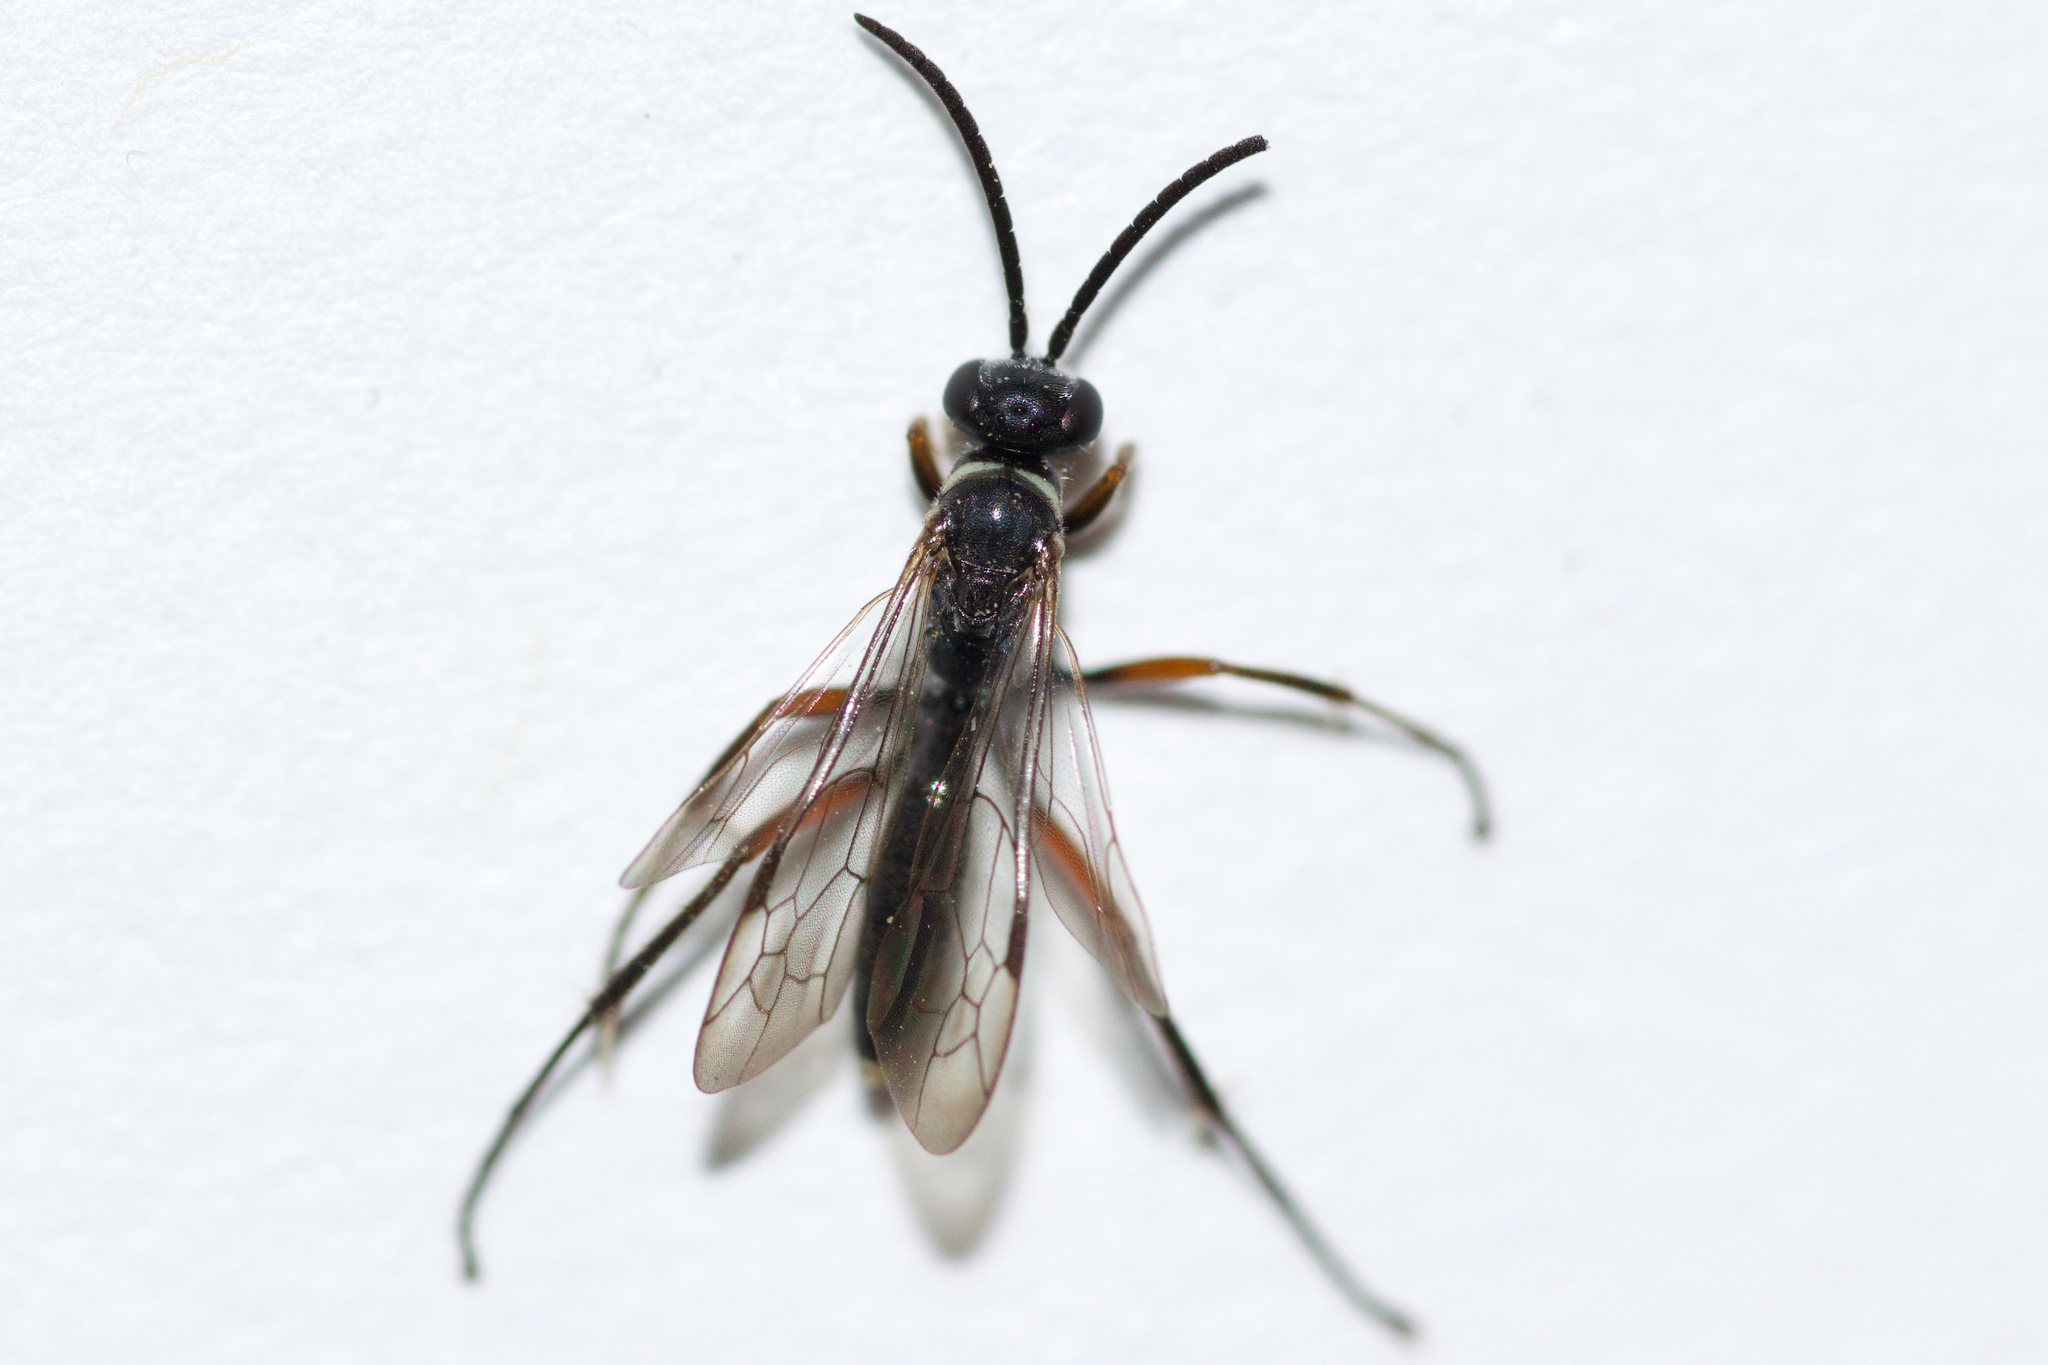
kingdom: Animalia
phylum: Arthropoda
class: Insecta
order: Hymenoptera
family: Pompilidae
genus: Caliadurgus
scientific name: Caliadurgus fasciatellus
